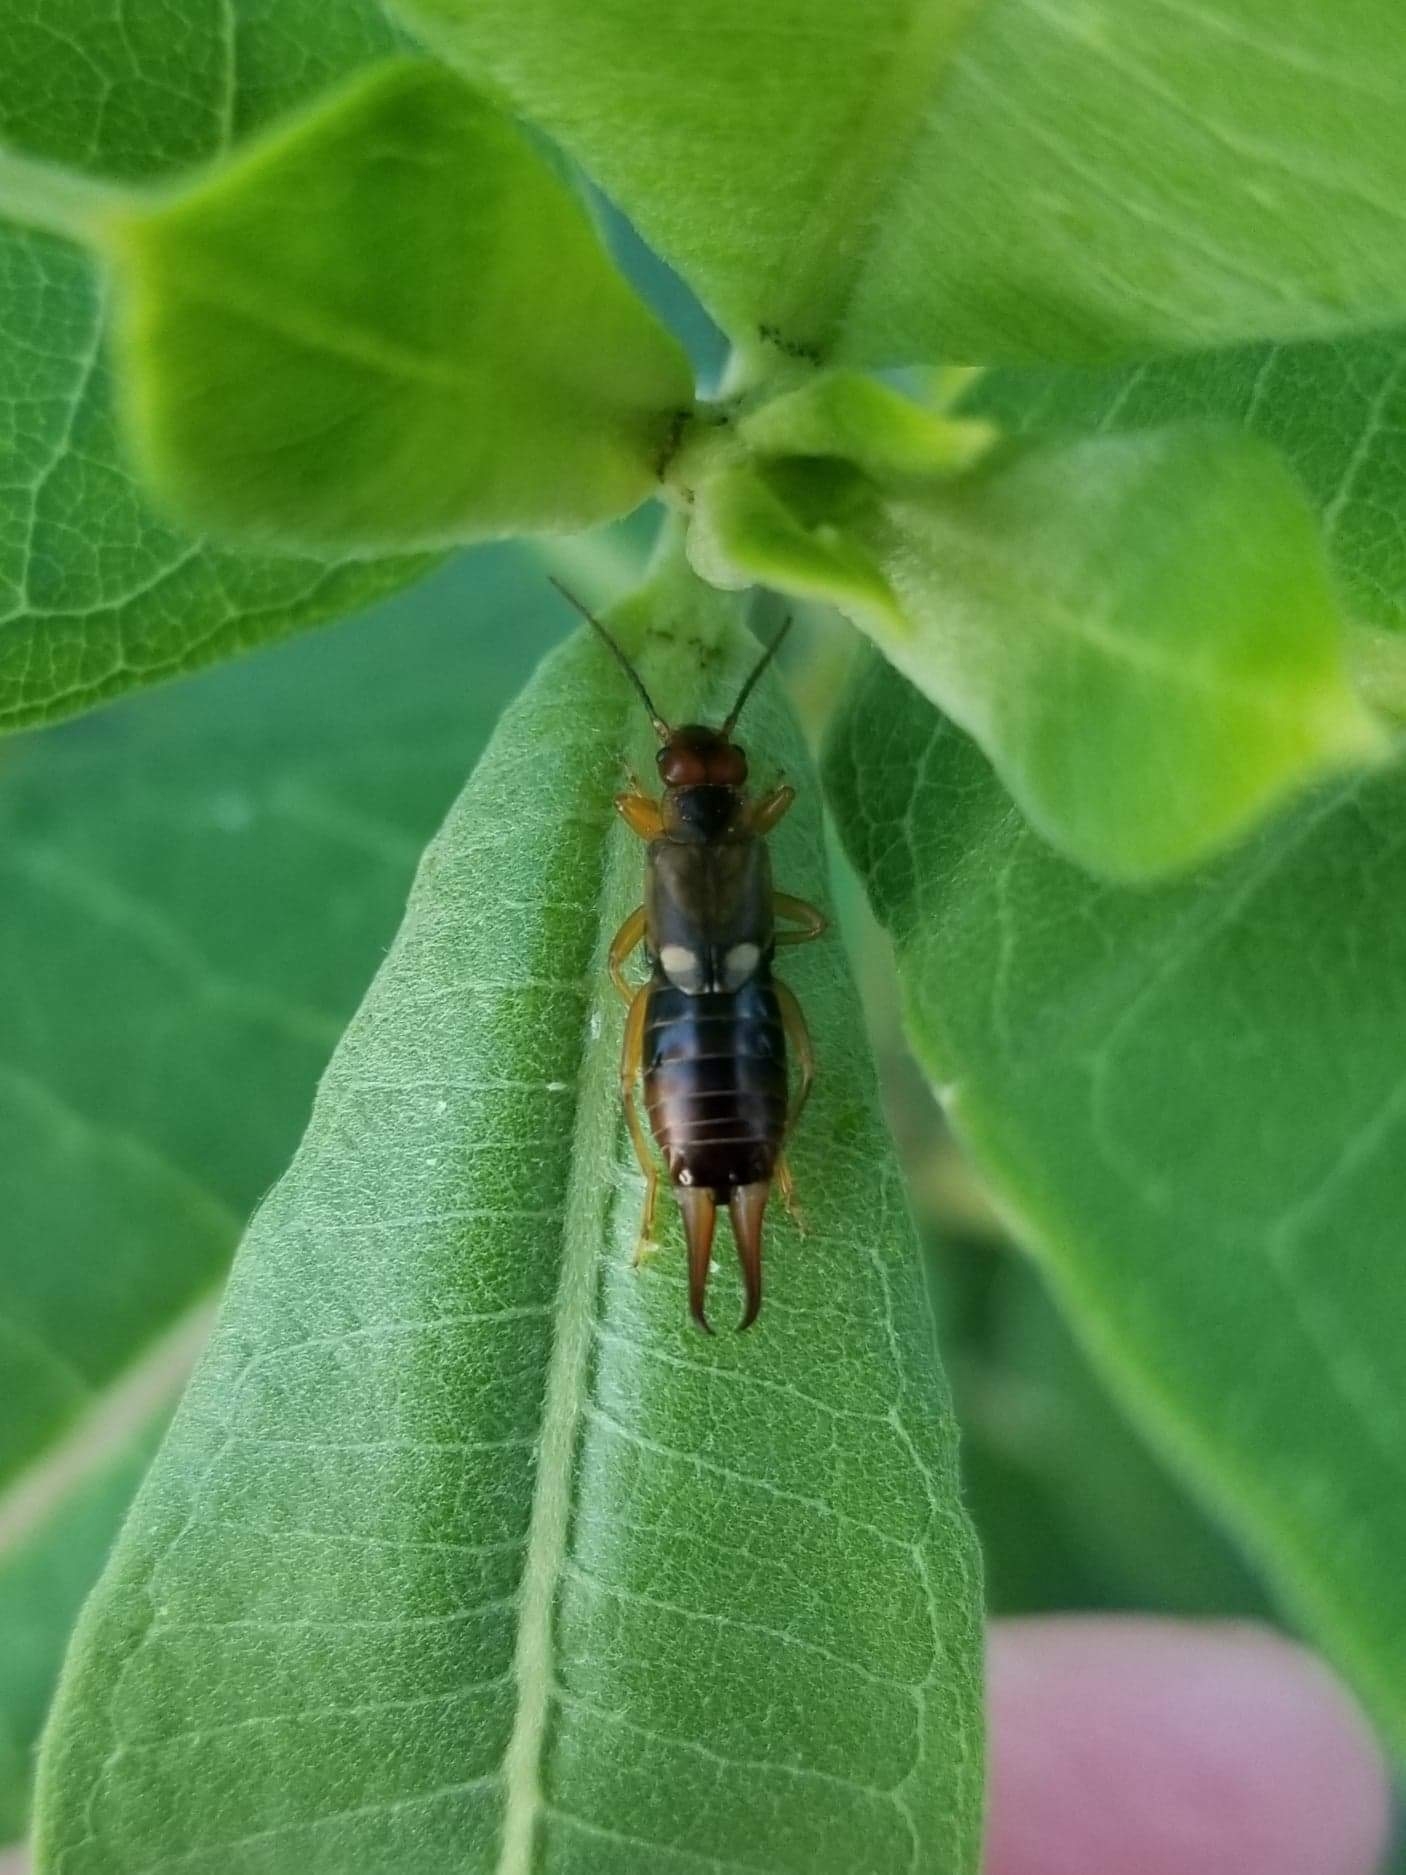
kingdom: Animalia
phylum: Arthropoda
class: Insecta
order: Dermaptera
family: Forficulidae
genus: Forficula
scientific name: Forficula
